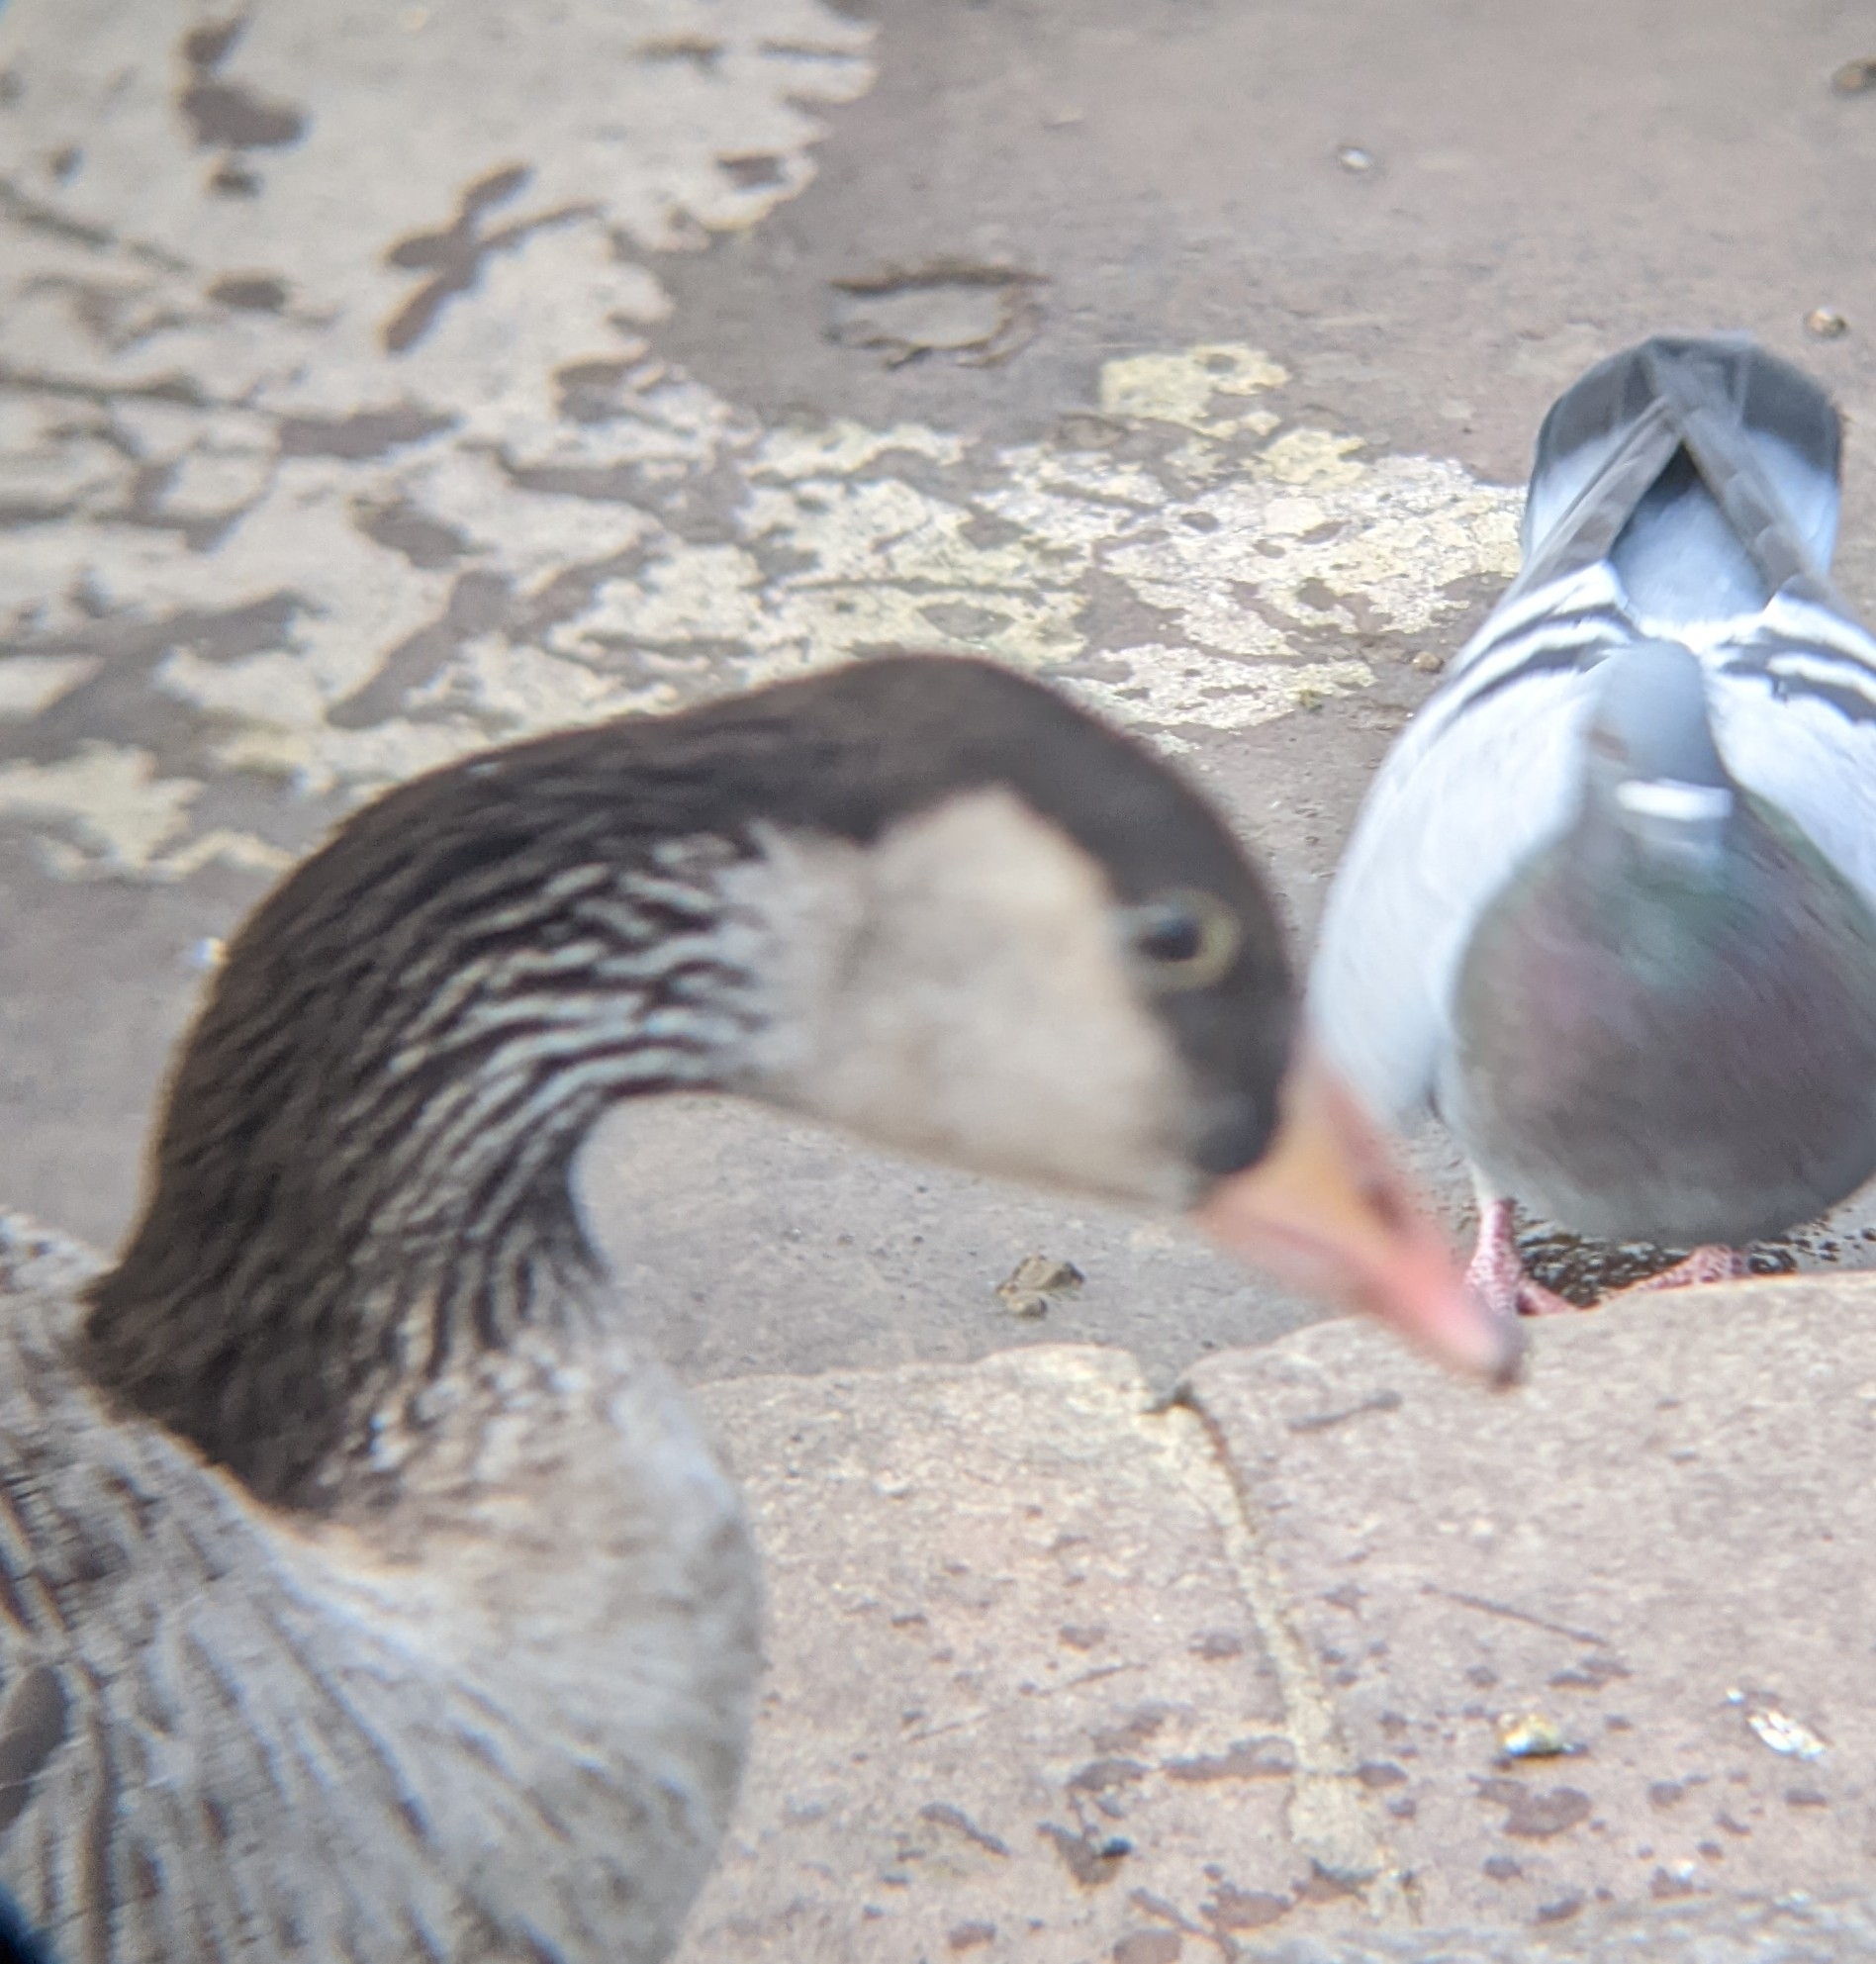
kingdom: Animalia
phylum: Chordata
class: Aves
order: Anseriformes
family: Anatidae
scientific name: Anatidae
